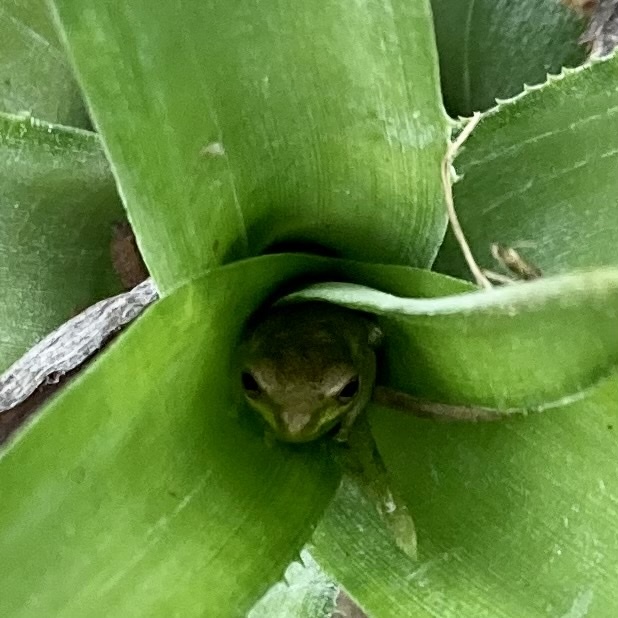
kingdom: Animalia
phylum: Chordata
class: Amphibia
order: Anura
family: Hylidae
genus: Osteopilus
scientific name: Osteopilus septentrionalis
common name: Cuban treefrog
